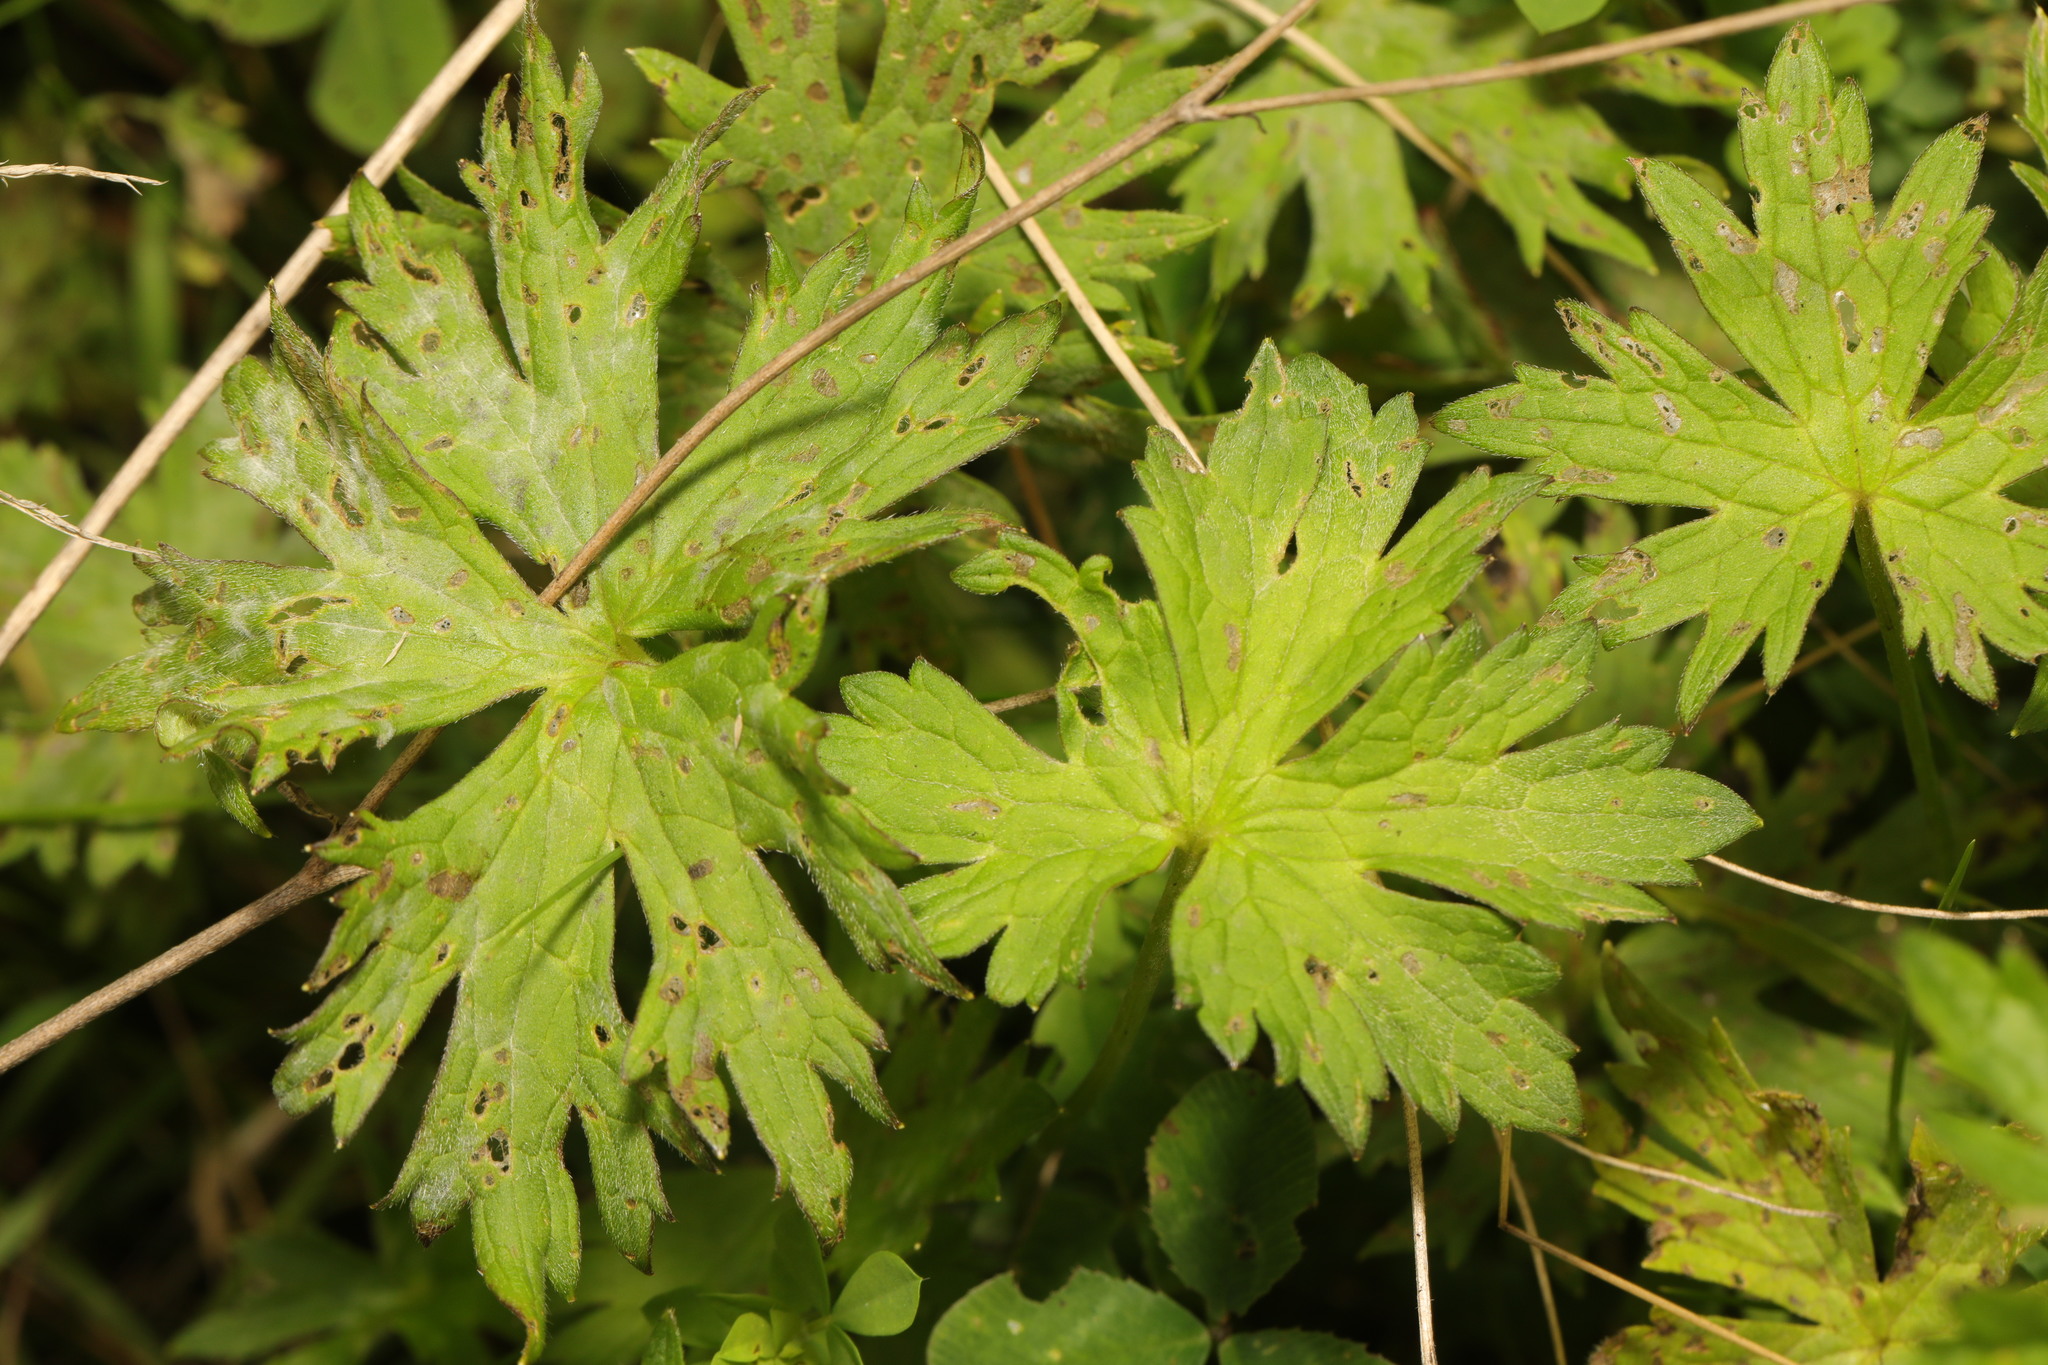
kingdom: Plantae
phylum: Tracheophyta
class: Magnoliopsida
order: Geraniales
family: Geraniaceae
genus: Geranium
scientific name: Geranium pratense
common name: Meadow crane's-bill
